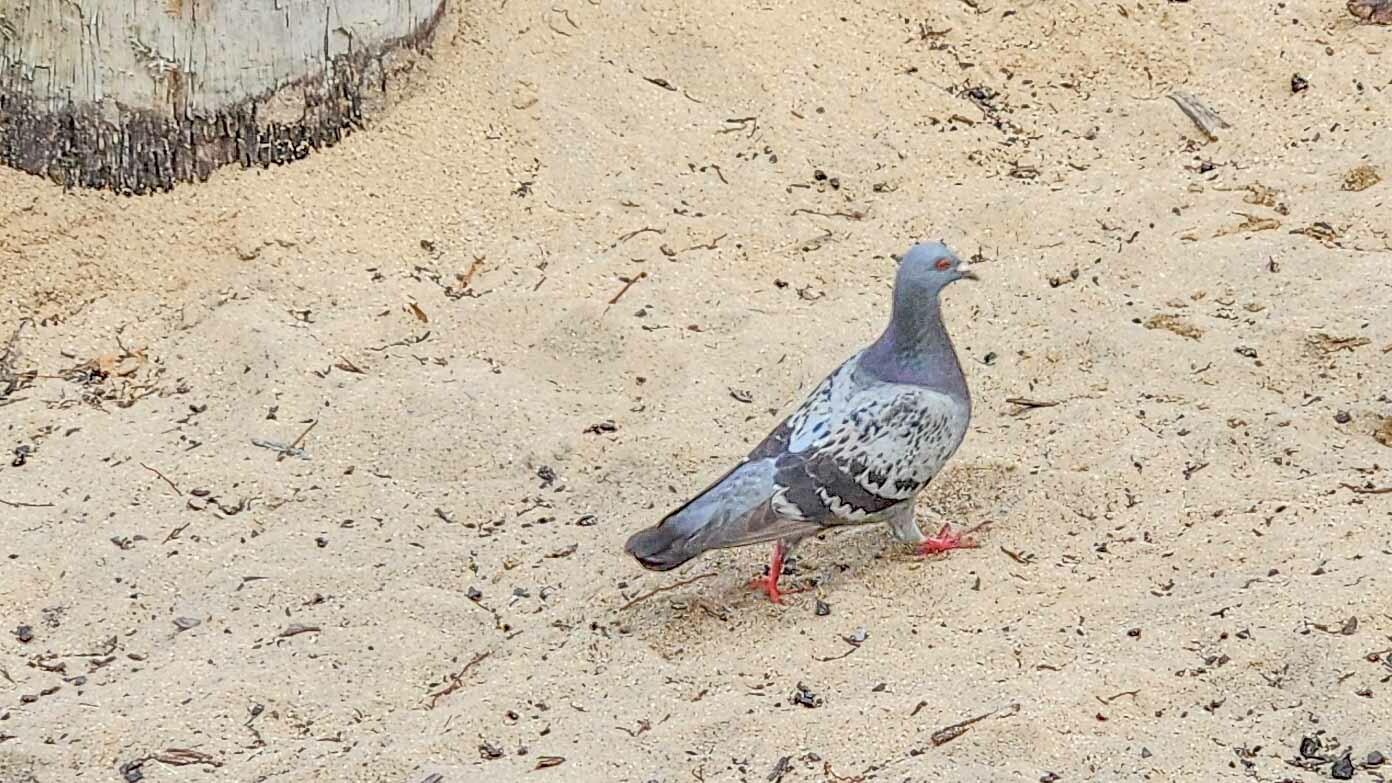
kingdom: Animalia
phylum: Chordata
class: Aves
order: Columbiformes
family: Columbidae
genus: Columba
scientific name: Columba livia
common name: Rock pigeon
